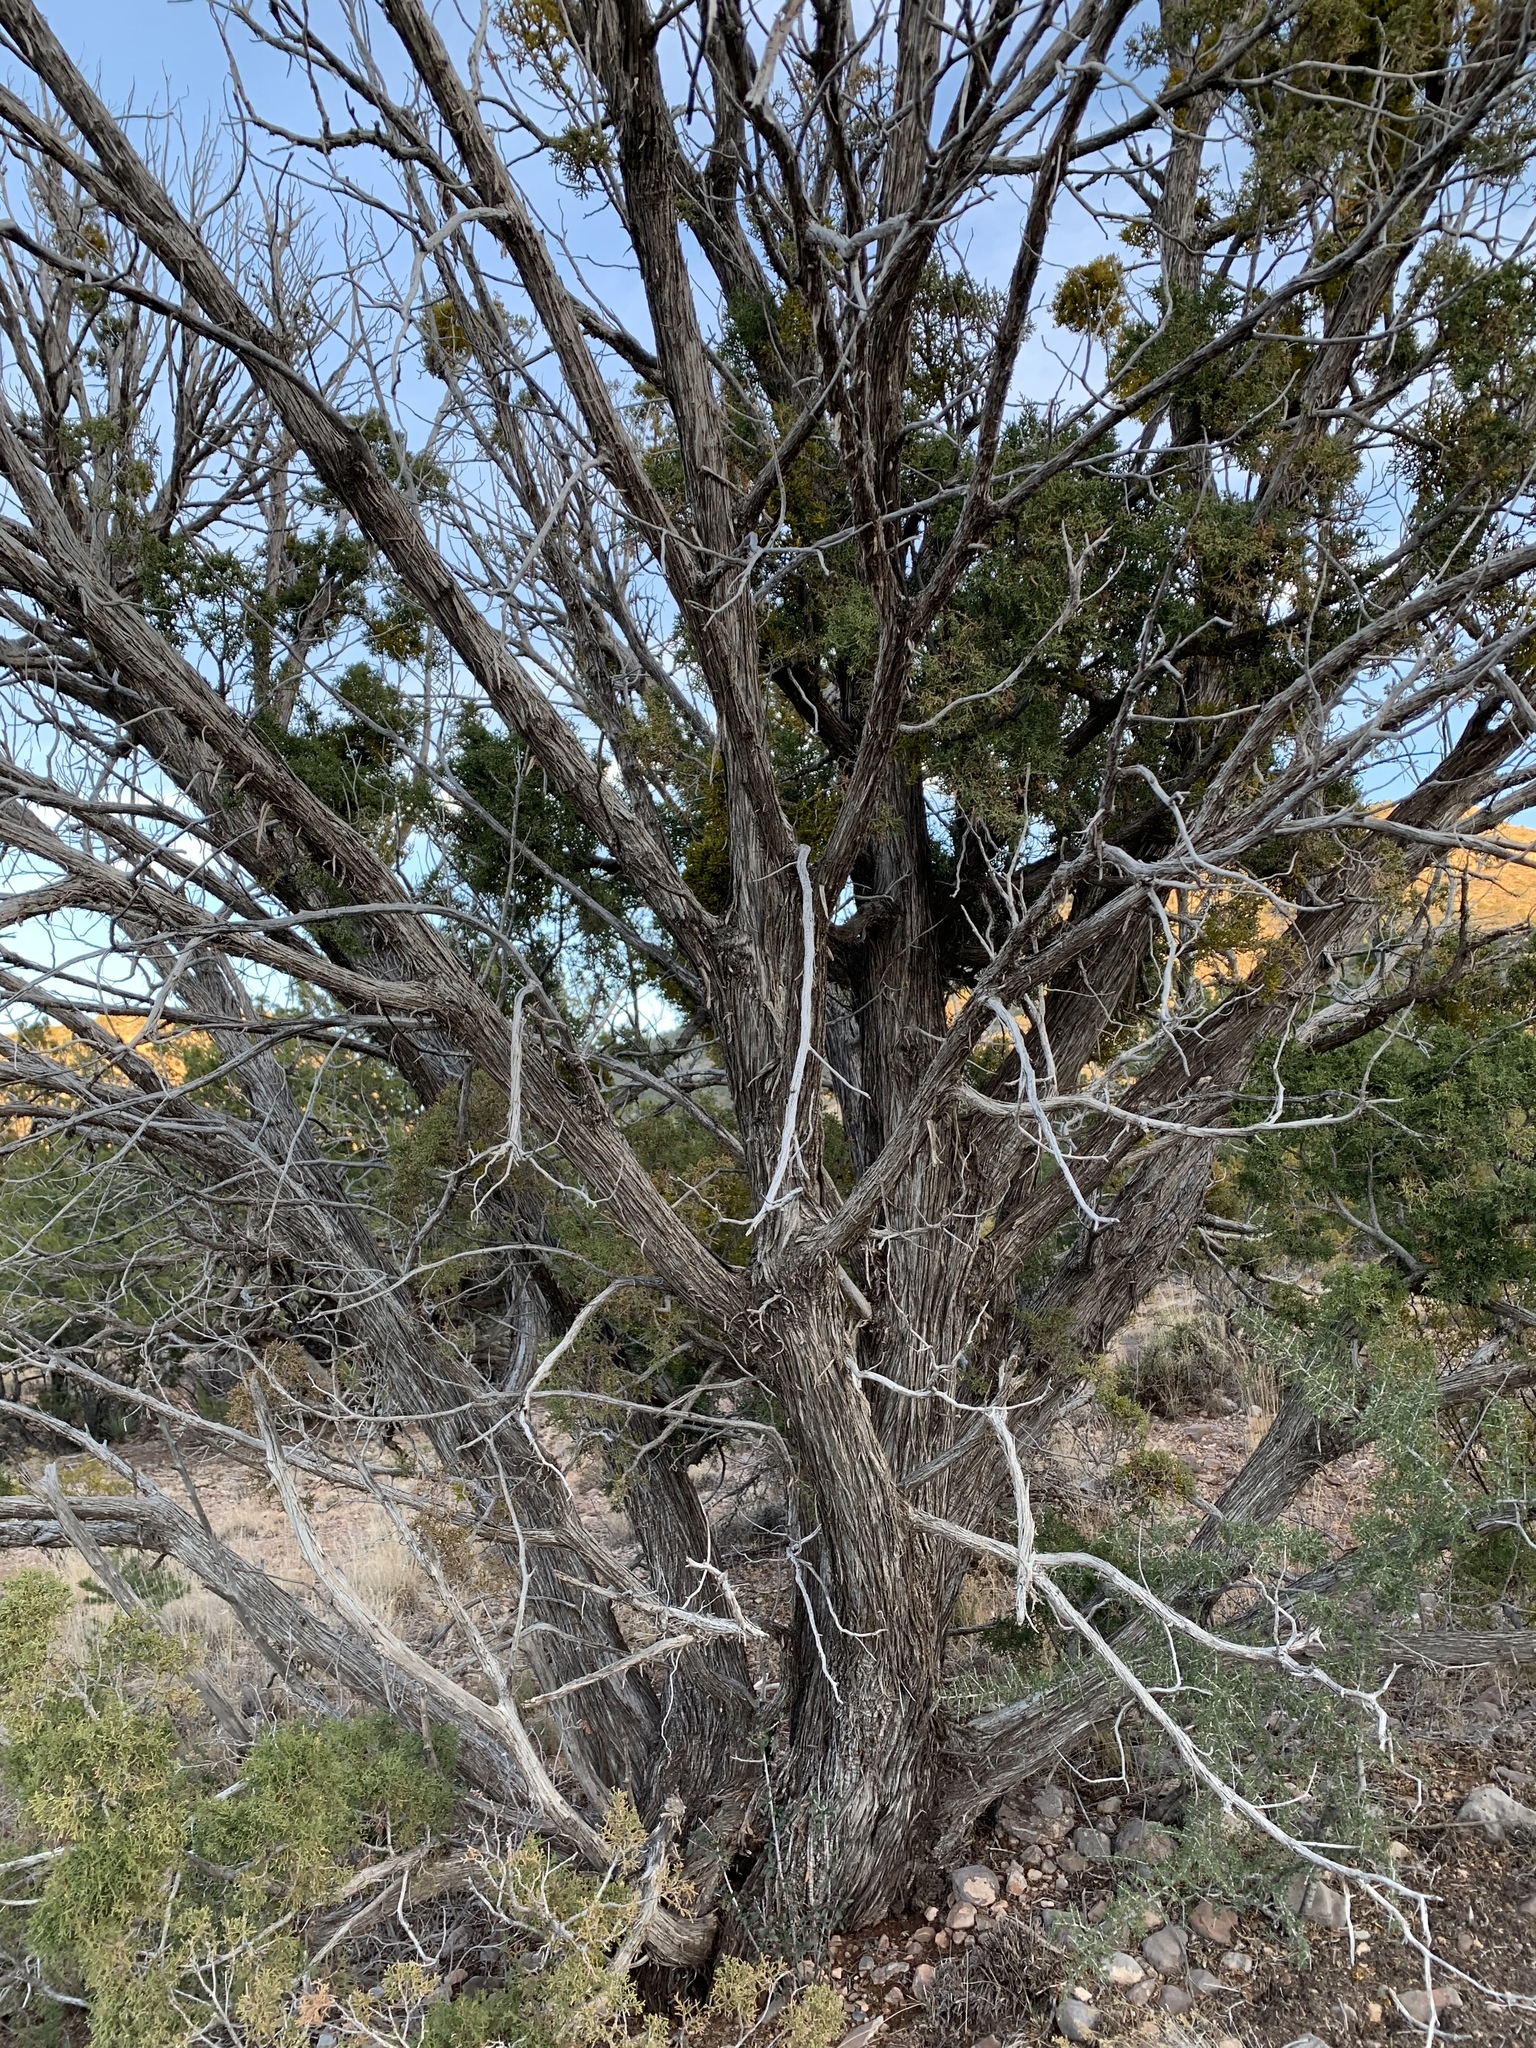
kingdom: Plantae
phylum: Tracheophyta
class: Pinopsida
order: Pinales
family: Cupressaceae
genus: Juniperus
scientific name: Juniperus monosperma
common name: One-seed juniper
